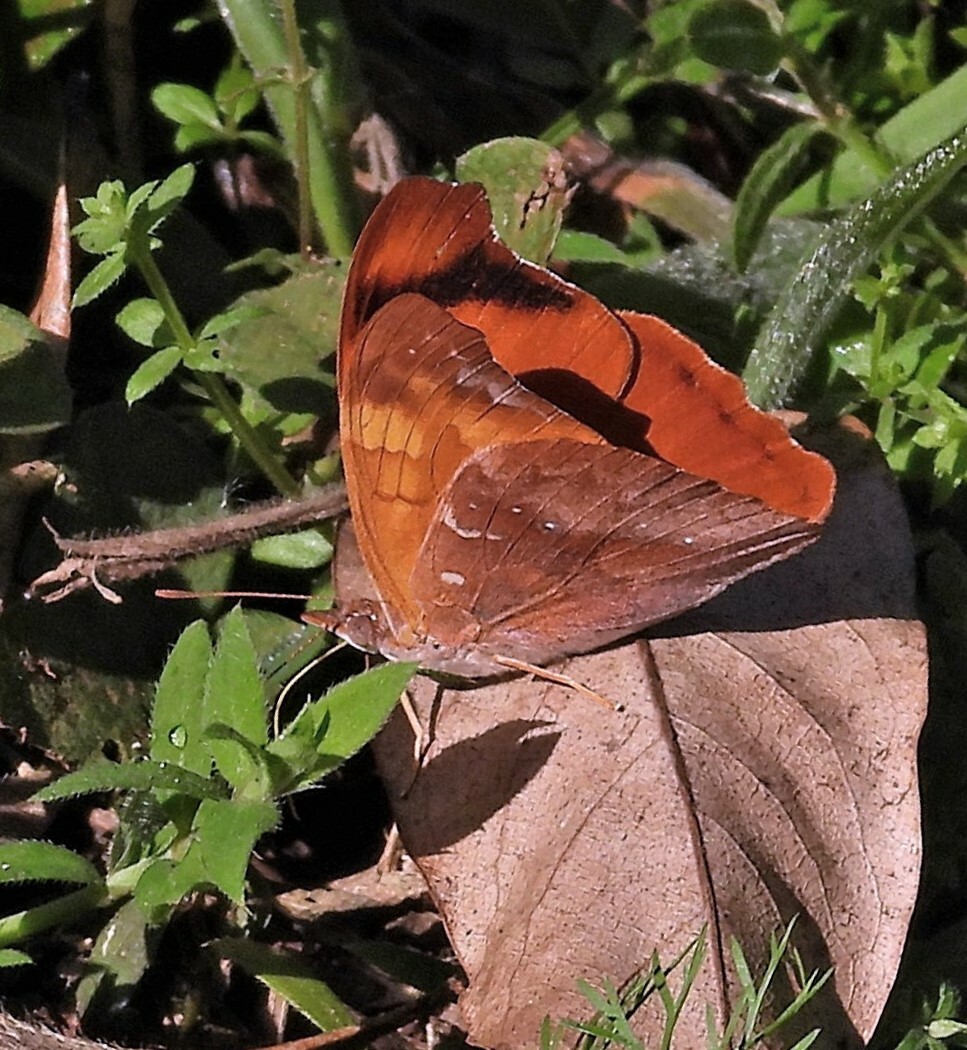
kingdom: Animalia
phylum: Arthropoda
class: Insecta
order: Lepidoptera
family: Nymphalidae
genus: Temenis
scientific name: Temenis laothoe
